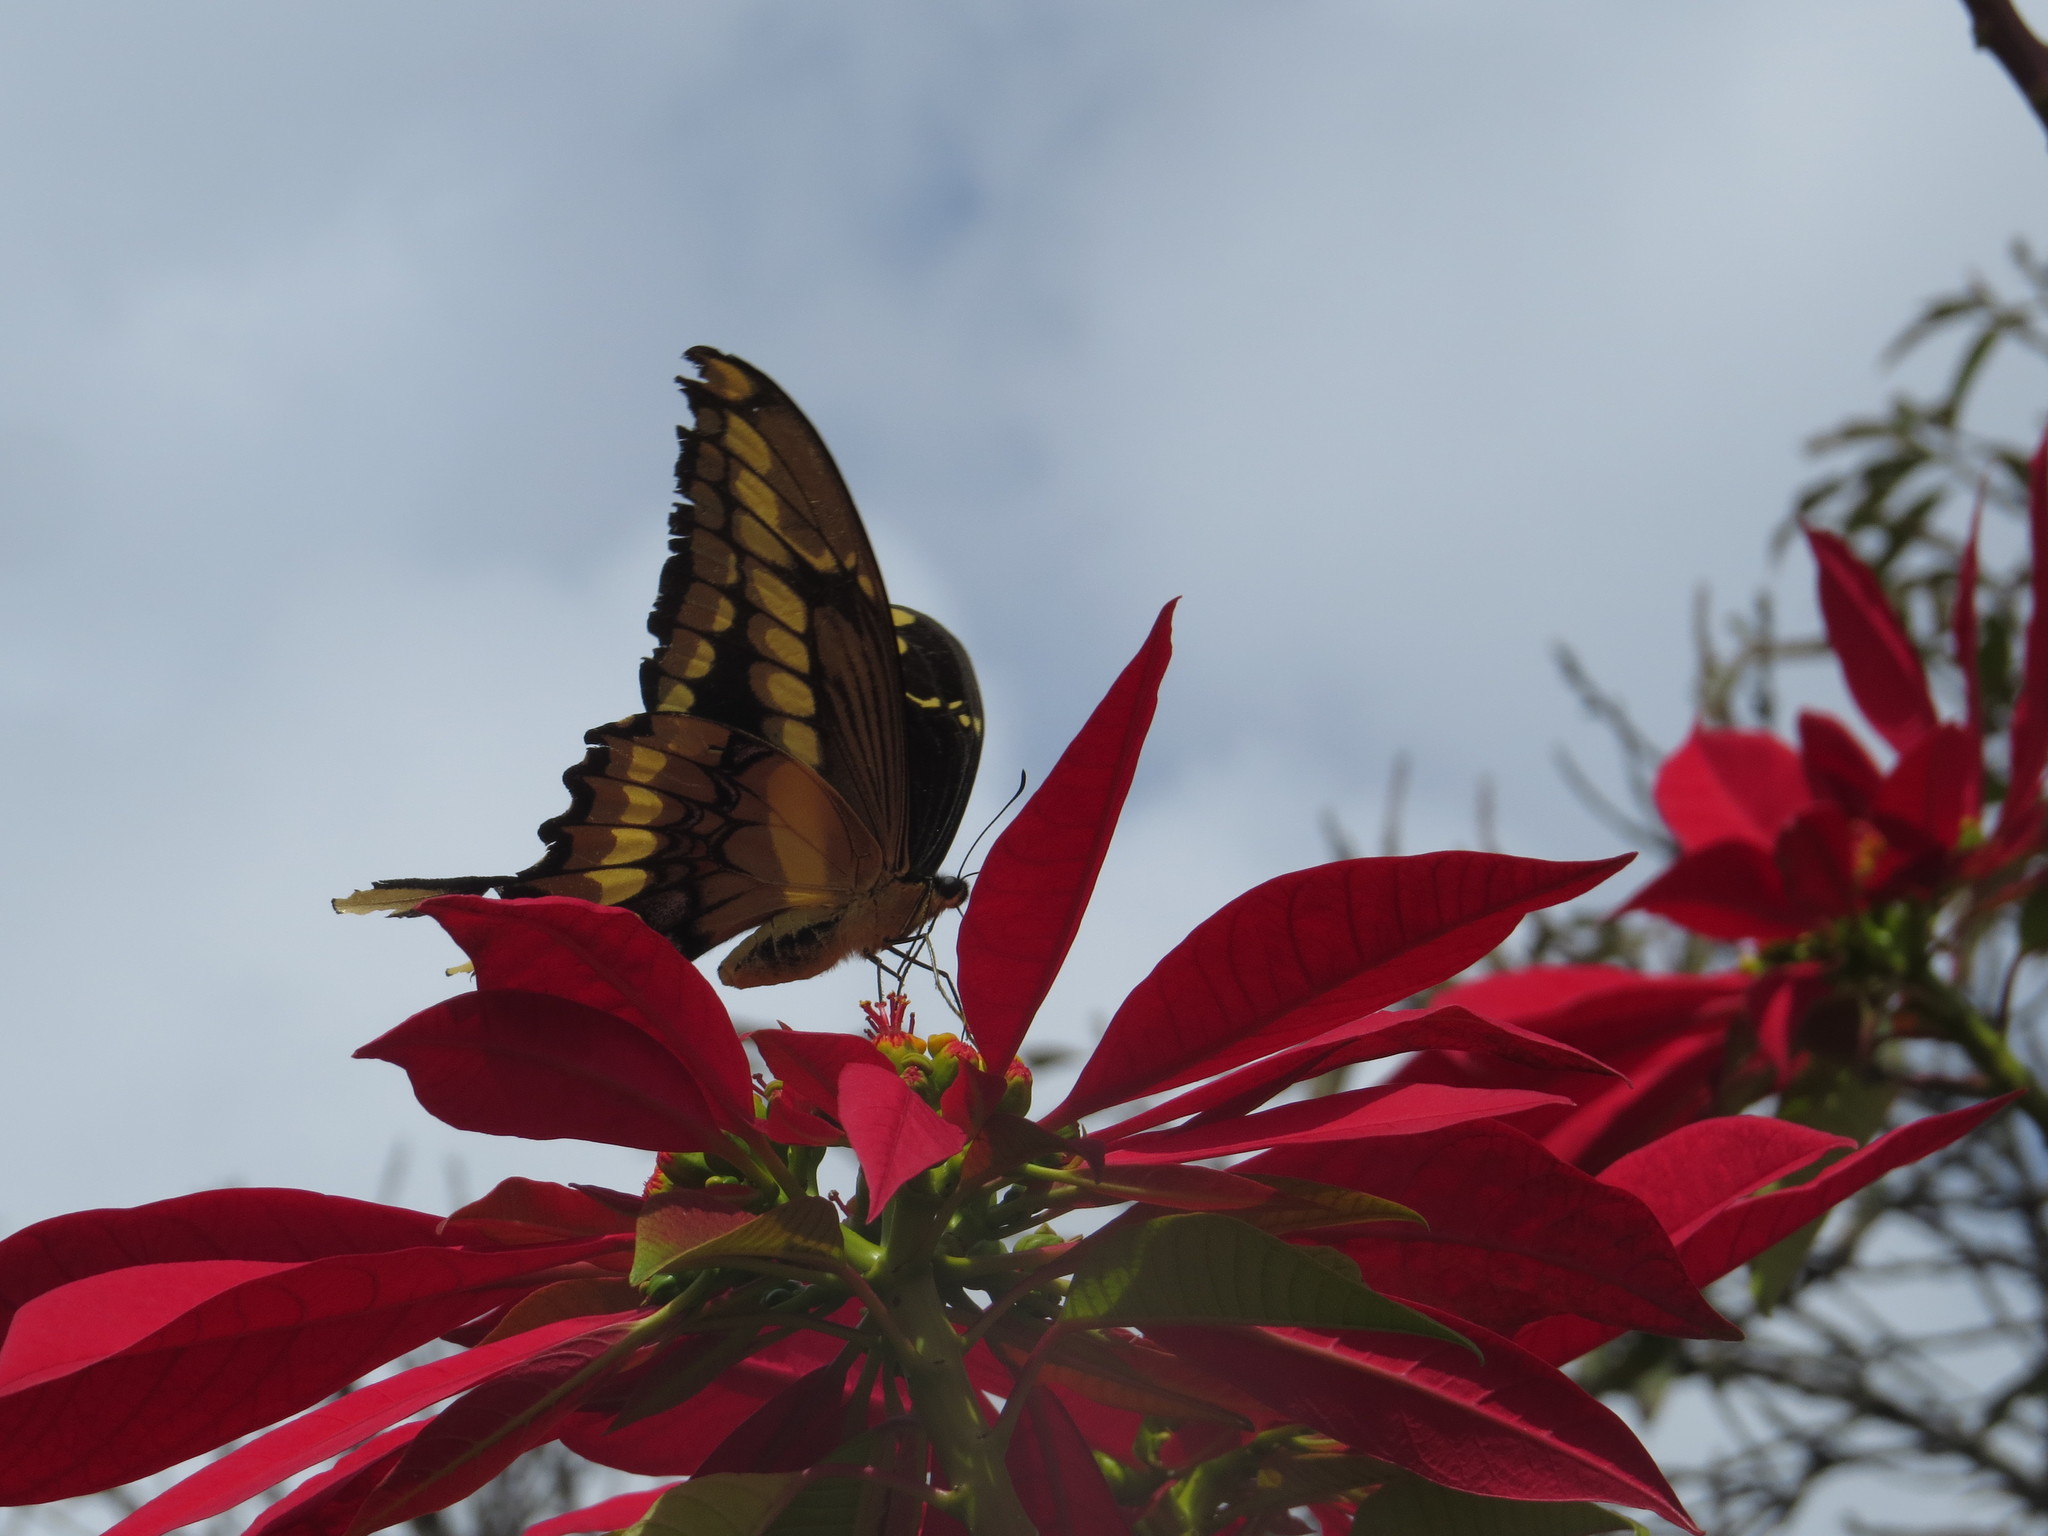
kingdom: Animalia
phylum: Arthropoda
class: Insecta
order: Lepidoptera
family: Papilionidae
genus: Papilio
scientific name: Papilio thoas
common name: King swallowtail
